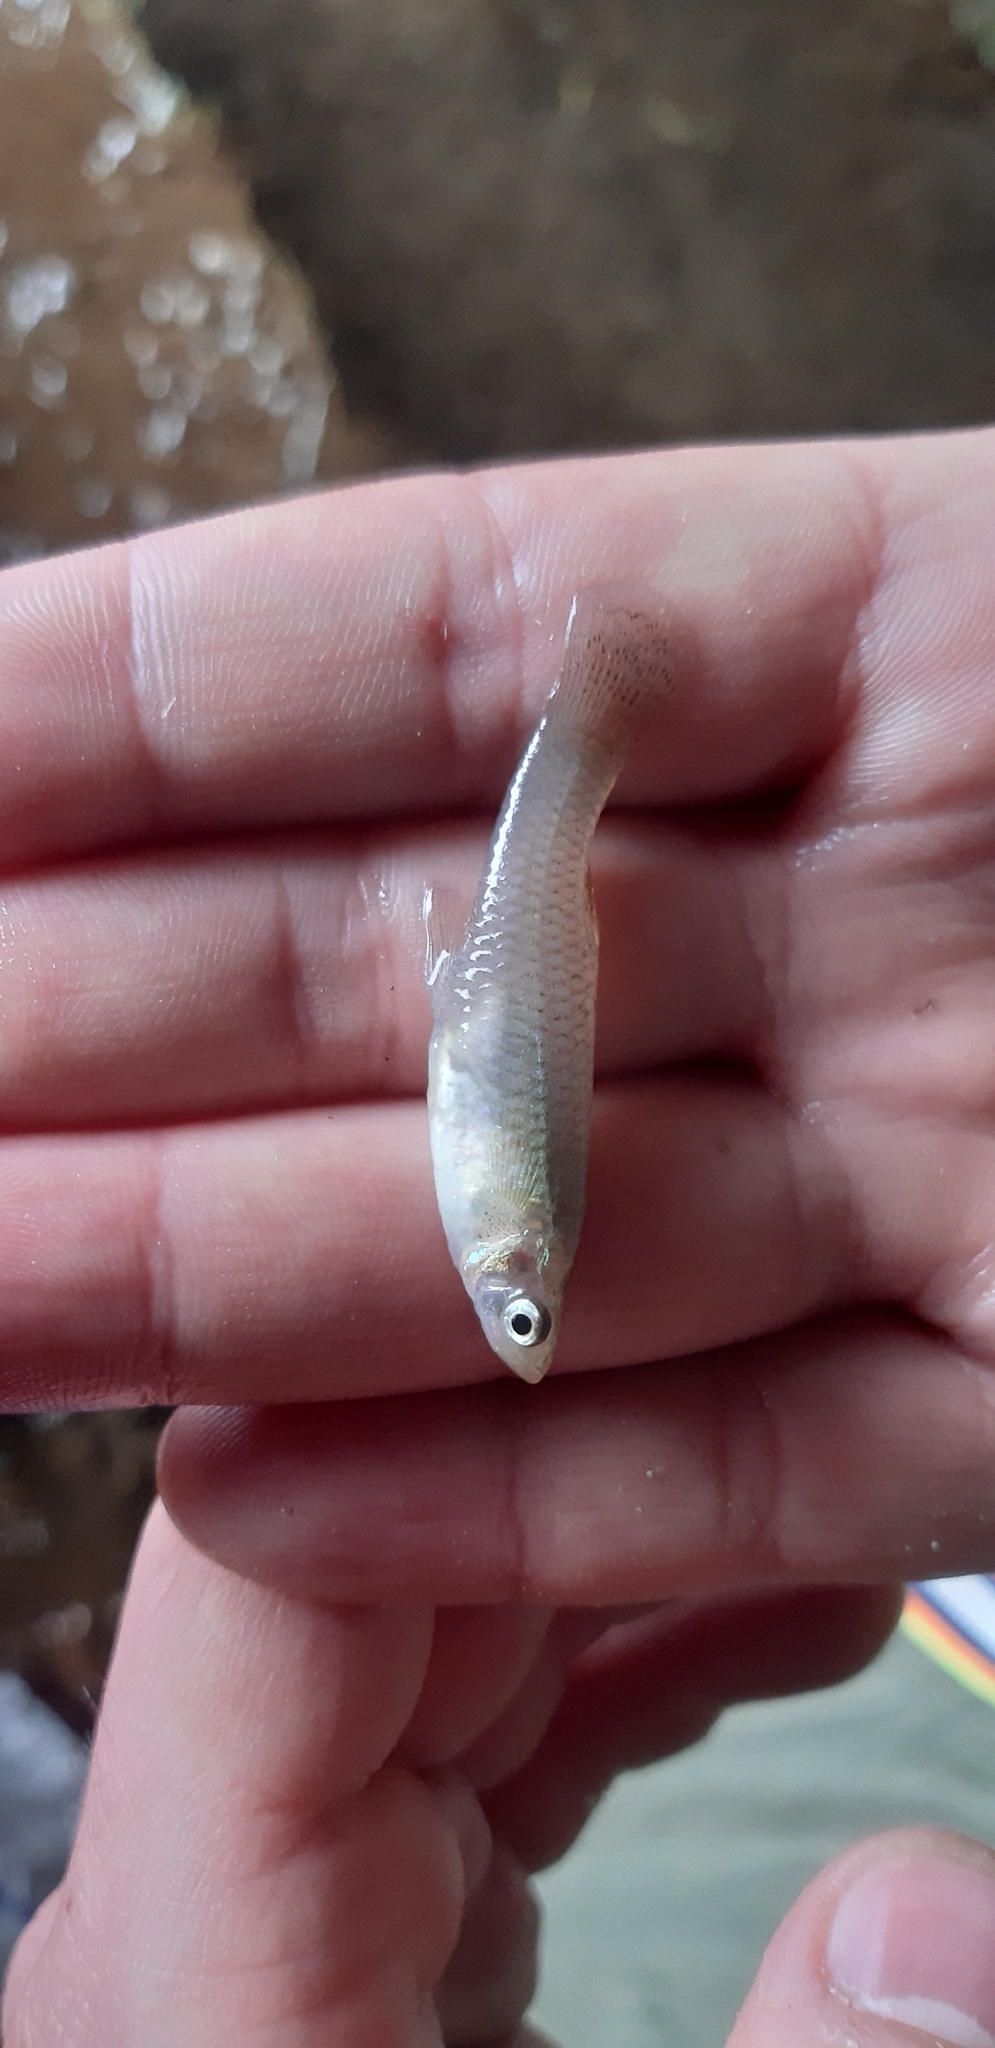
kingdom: Animalia
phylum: Chordata
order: Cyprinodontiformes
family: Poeciliidae
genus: Gambusia
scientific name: Gambusia holbrooki
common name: Eastern mosquitofish
